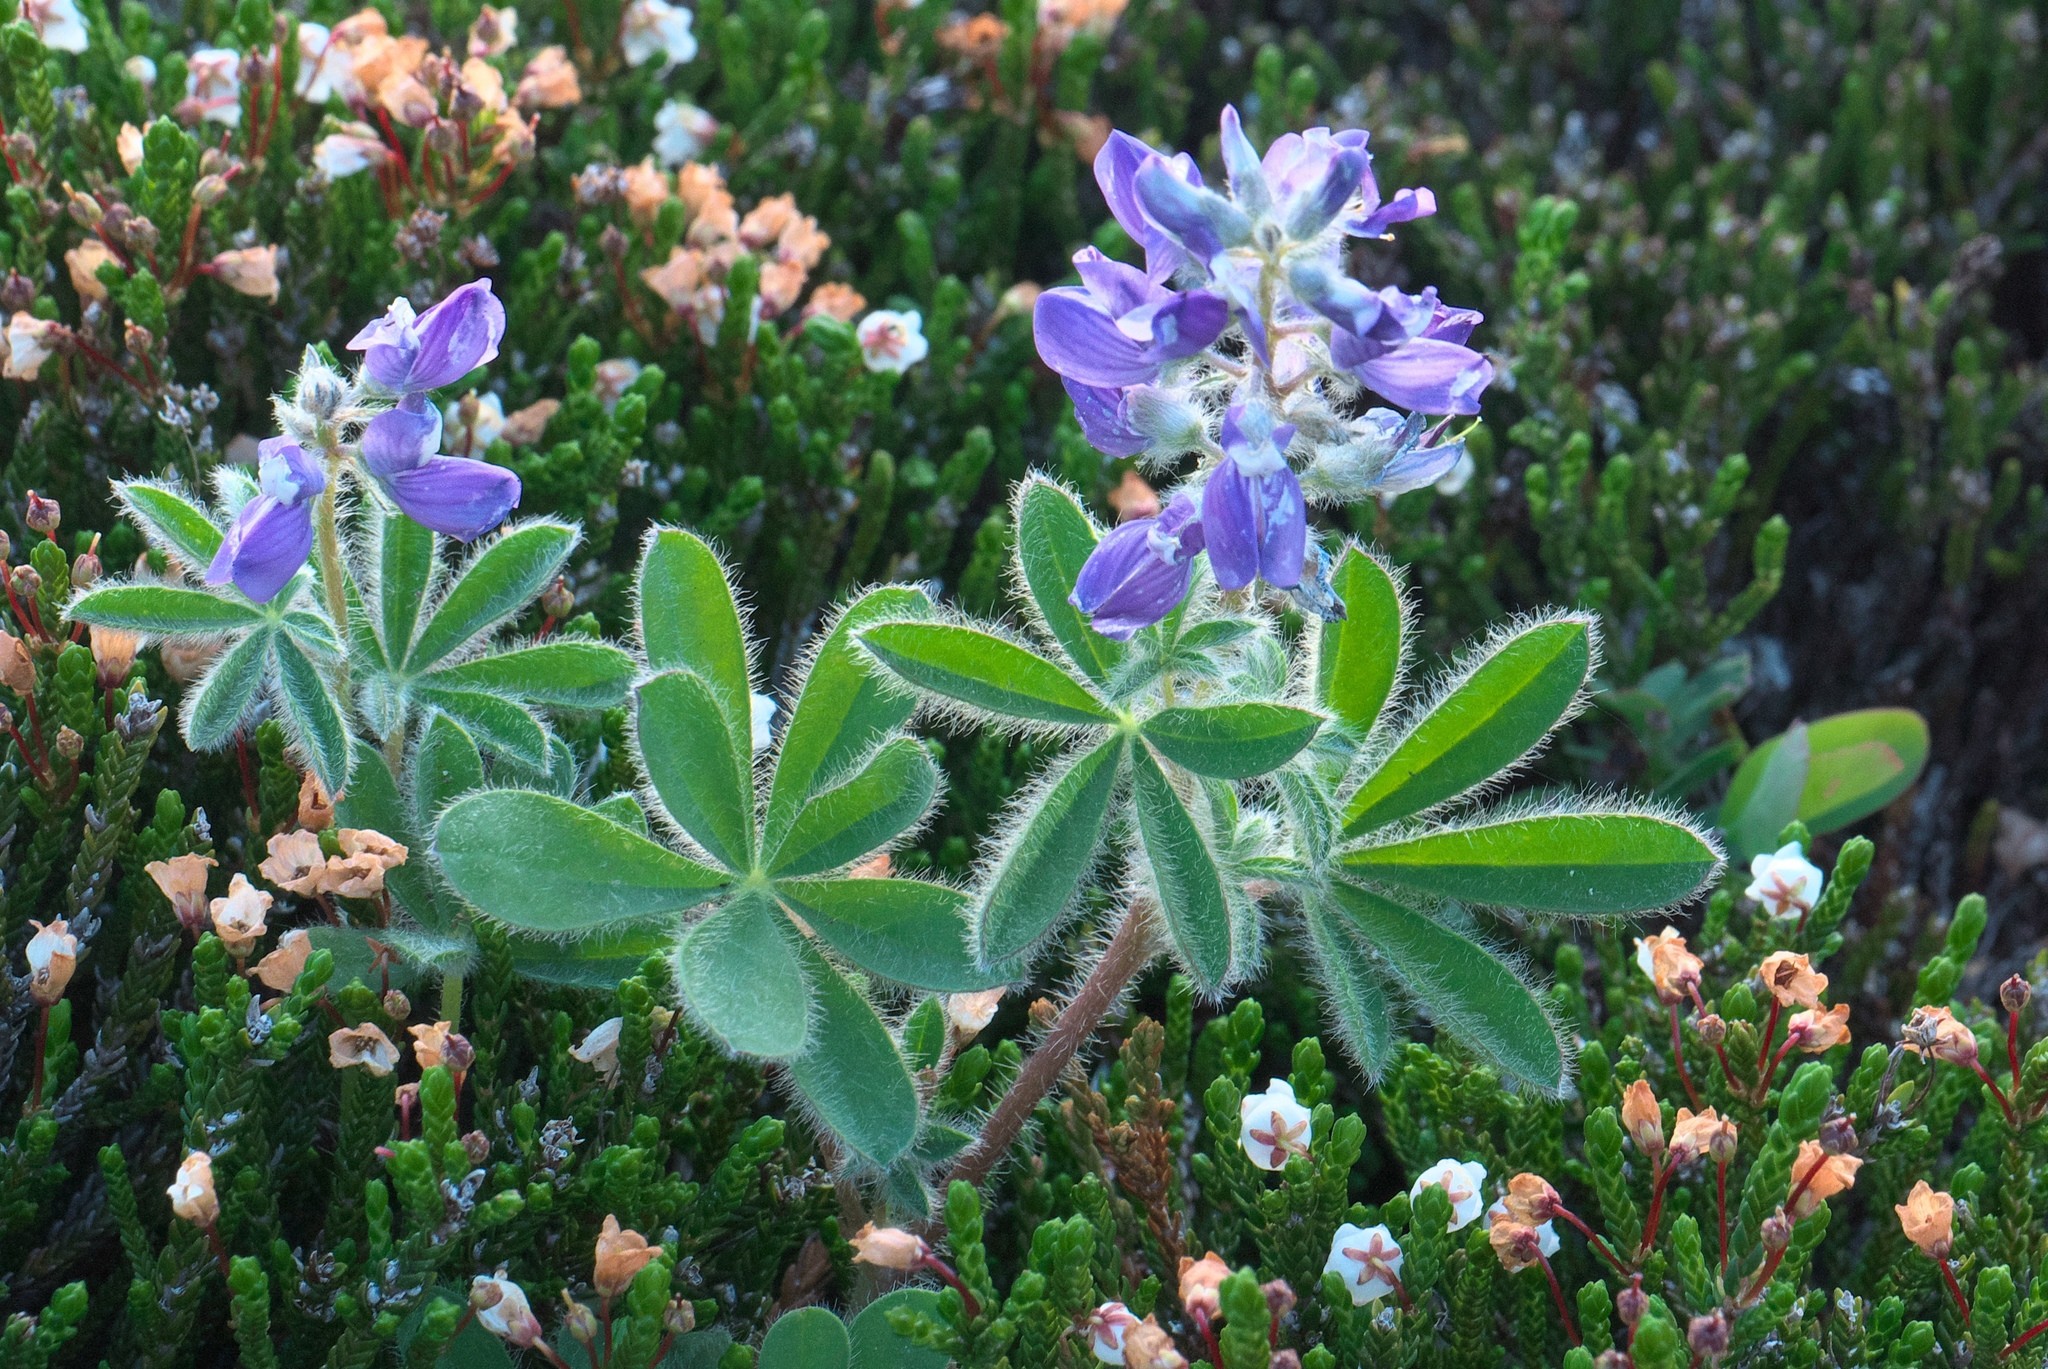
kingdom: Plantae
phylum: Tracheophyta
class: Magnoliopsida
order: Fabales
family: Fabaceae
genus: Lupinus
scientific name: Lupinus sericeus
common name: Silky lupine
